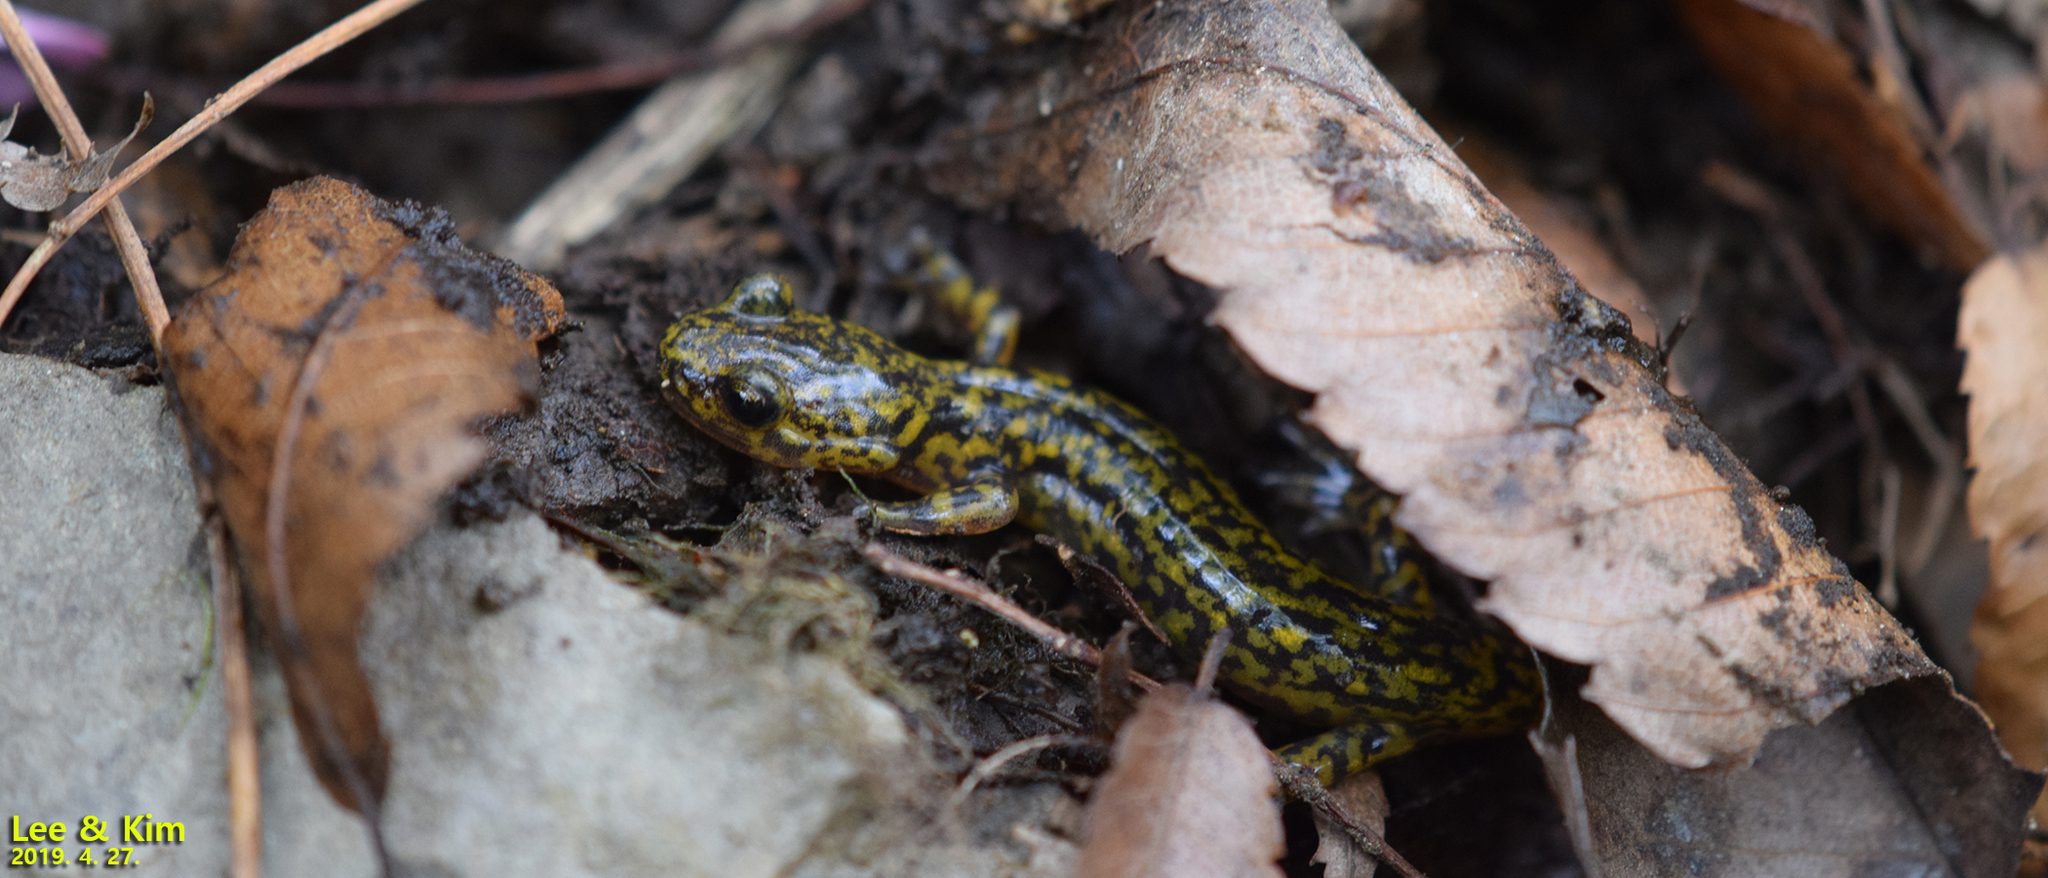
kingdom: Animalia
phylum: Chordata
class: Amphibia
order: Caudata
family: Hynobiidae
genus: Onychodactylus
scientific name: Onychodactylus koreanus
